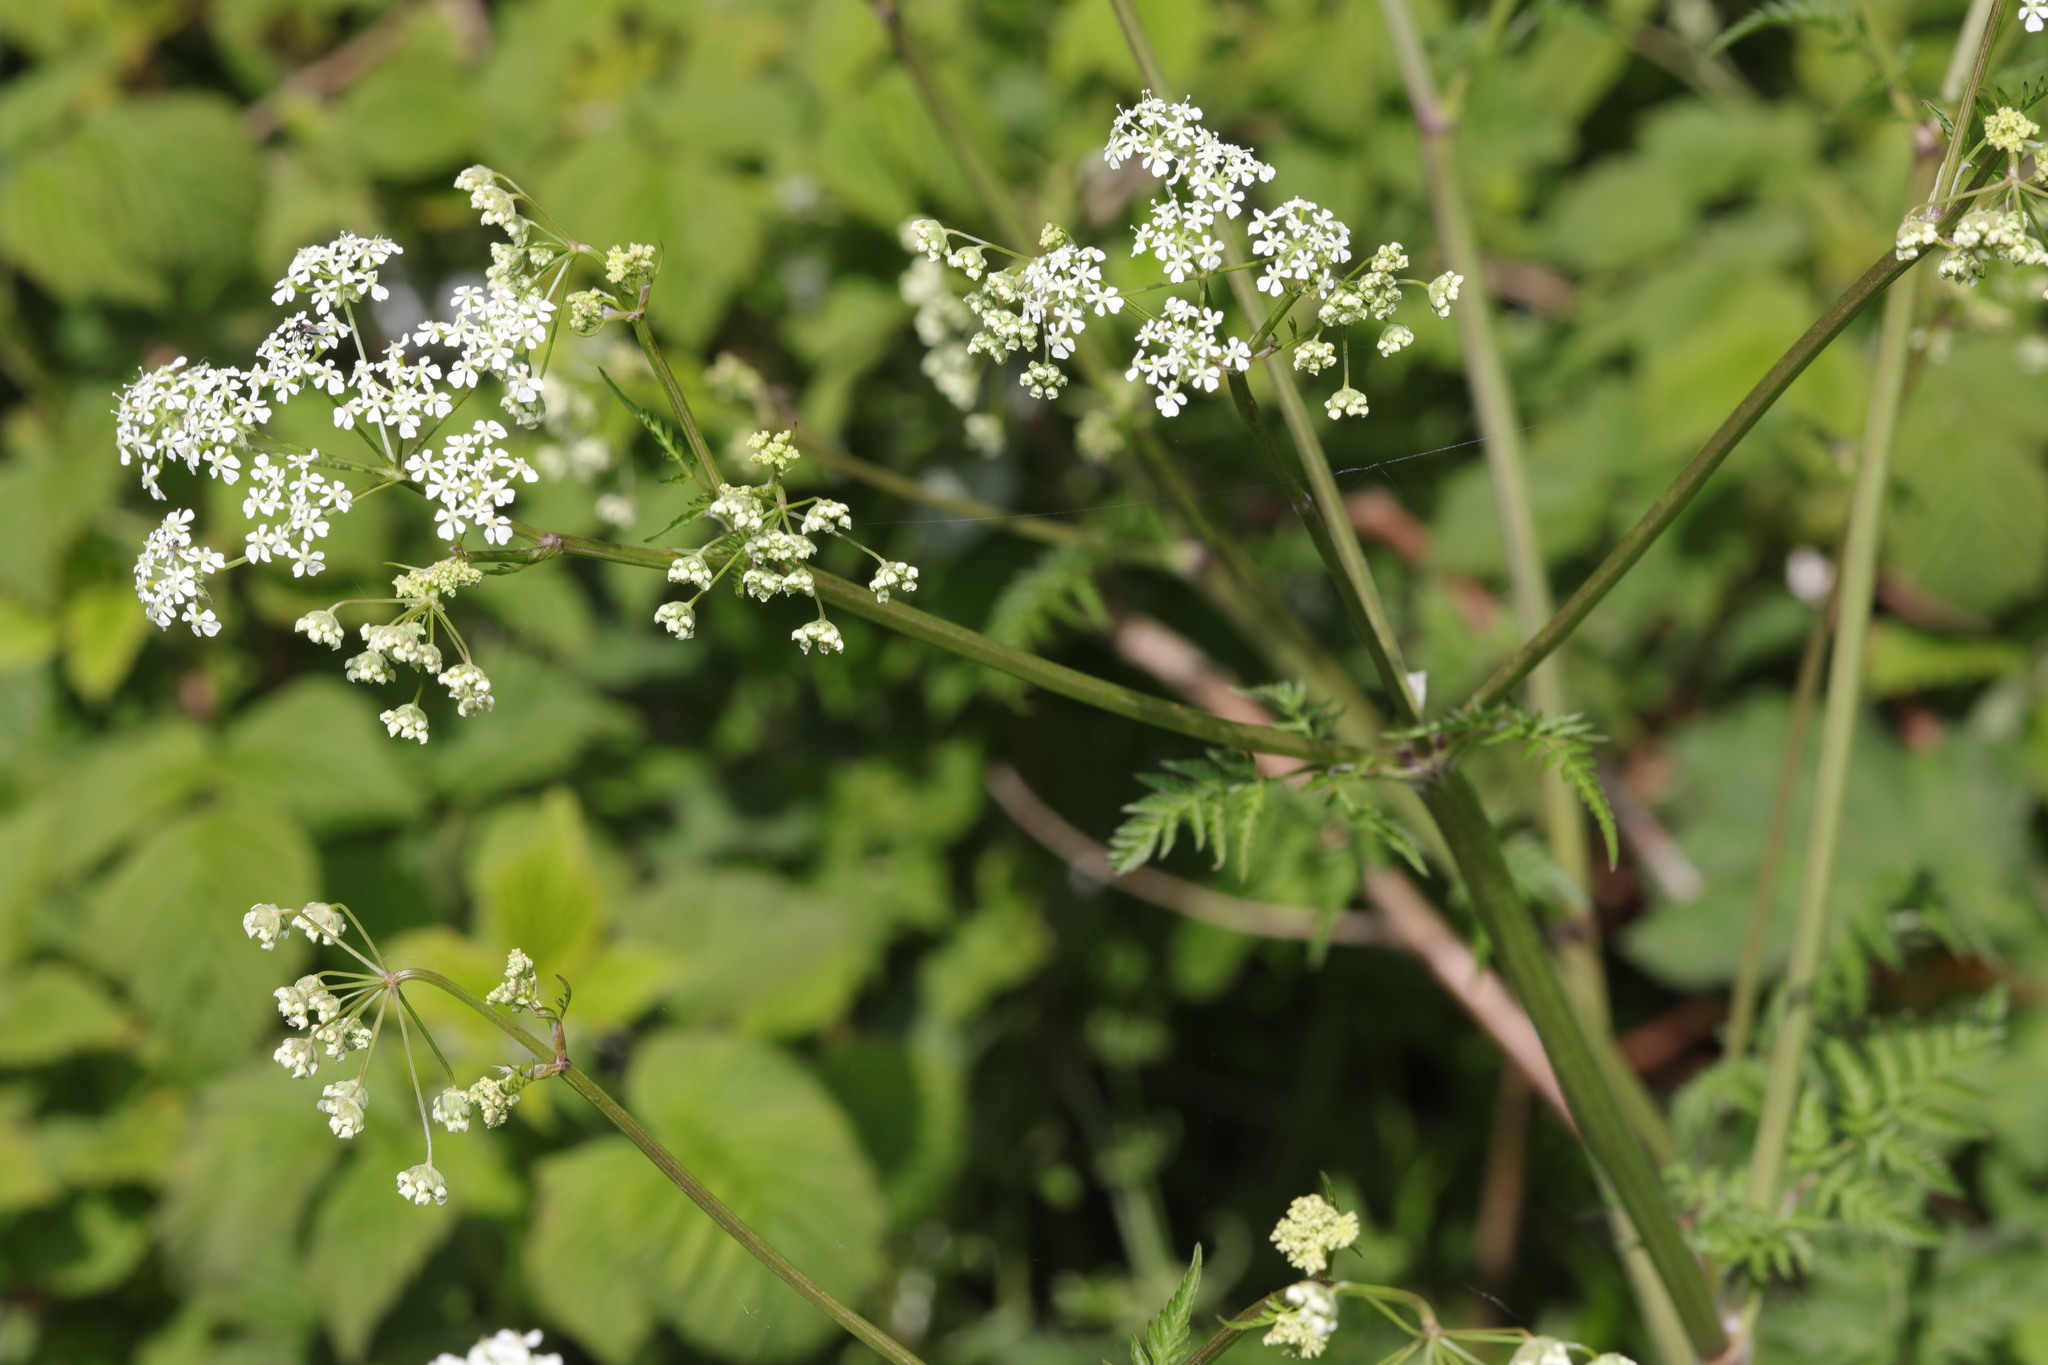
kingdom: Plantae
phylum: Tracheophyta
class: Magnoliopsida
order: Apiales
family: Apiaceae
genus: Anthriscus
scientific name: Anthriscus sylvestris
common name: Cow parsley
